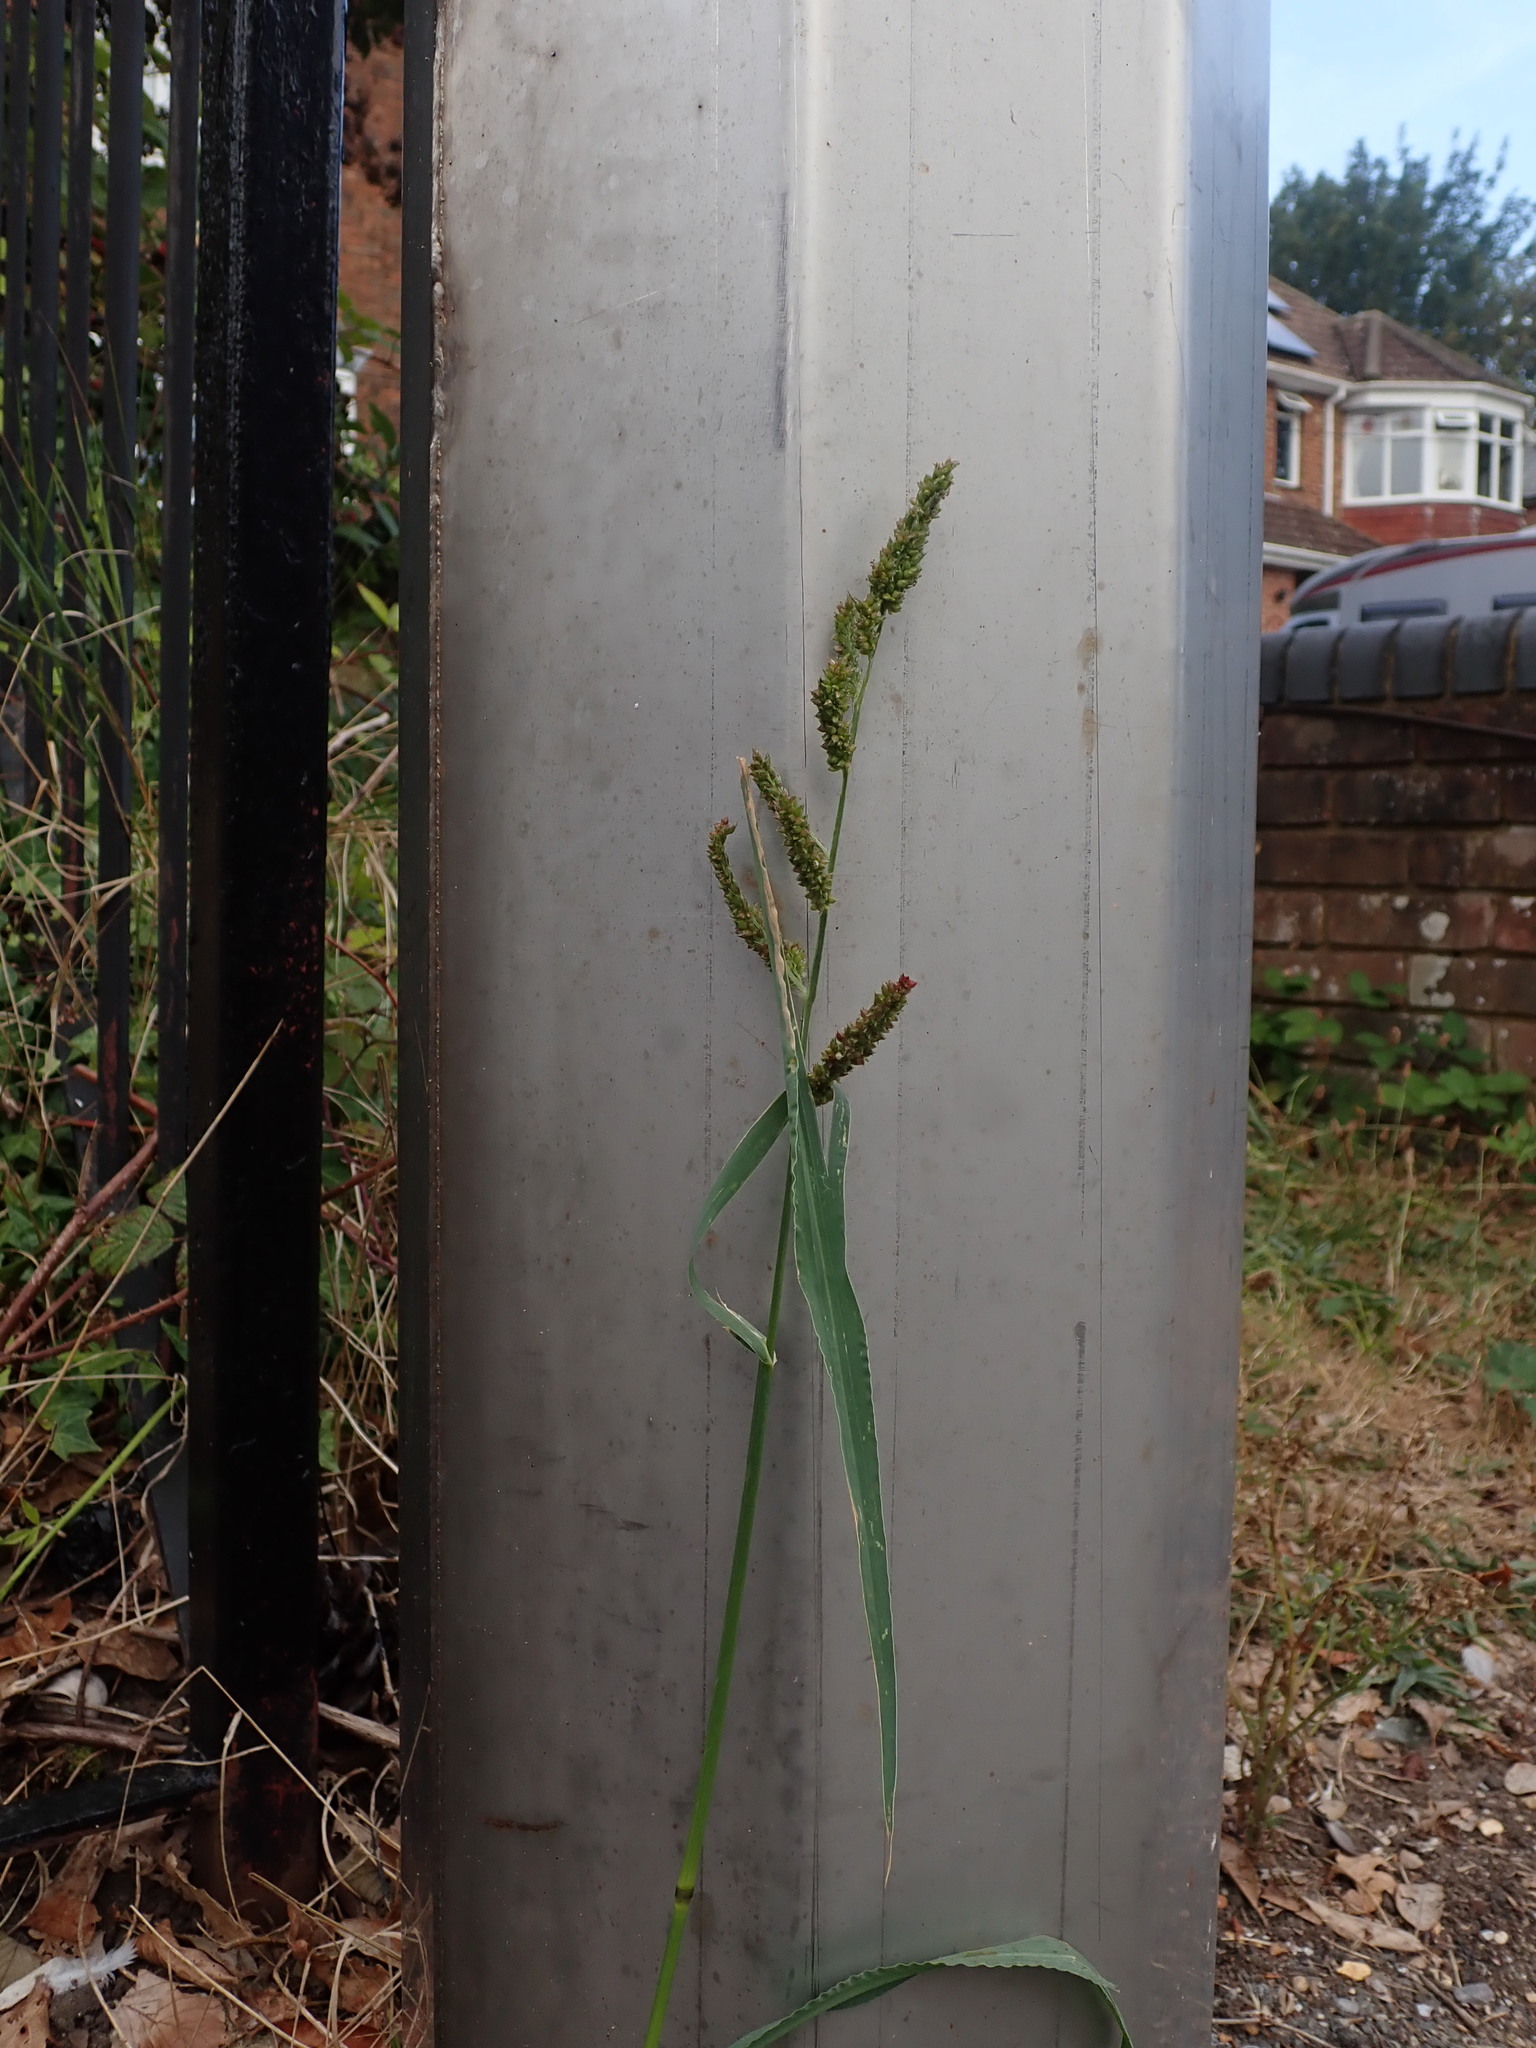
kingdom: Plantae
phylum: Tracheophyta
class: Liliopsida
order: Poales
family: Poaceae
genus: Echinochloa
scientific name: Echinochloa crus-galli
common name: Cockspur
